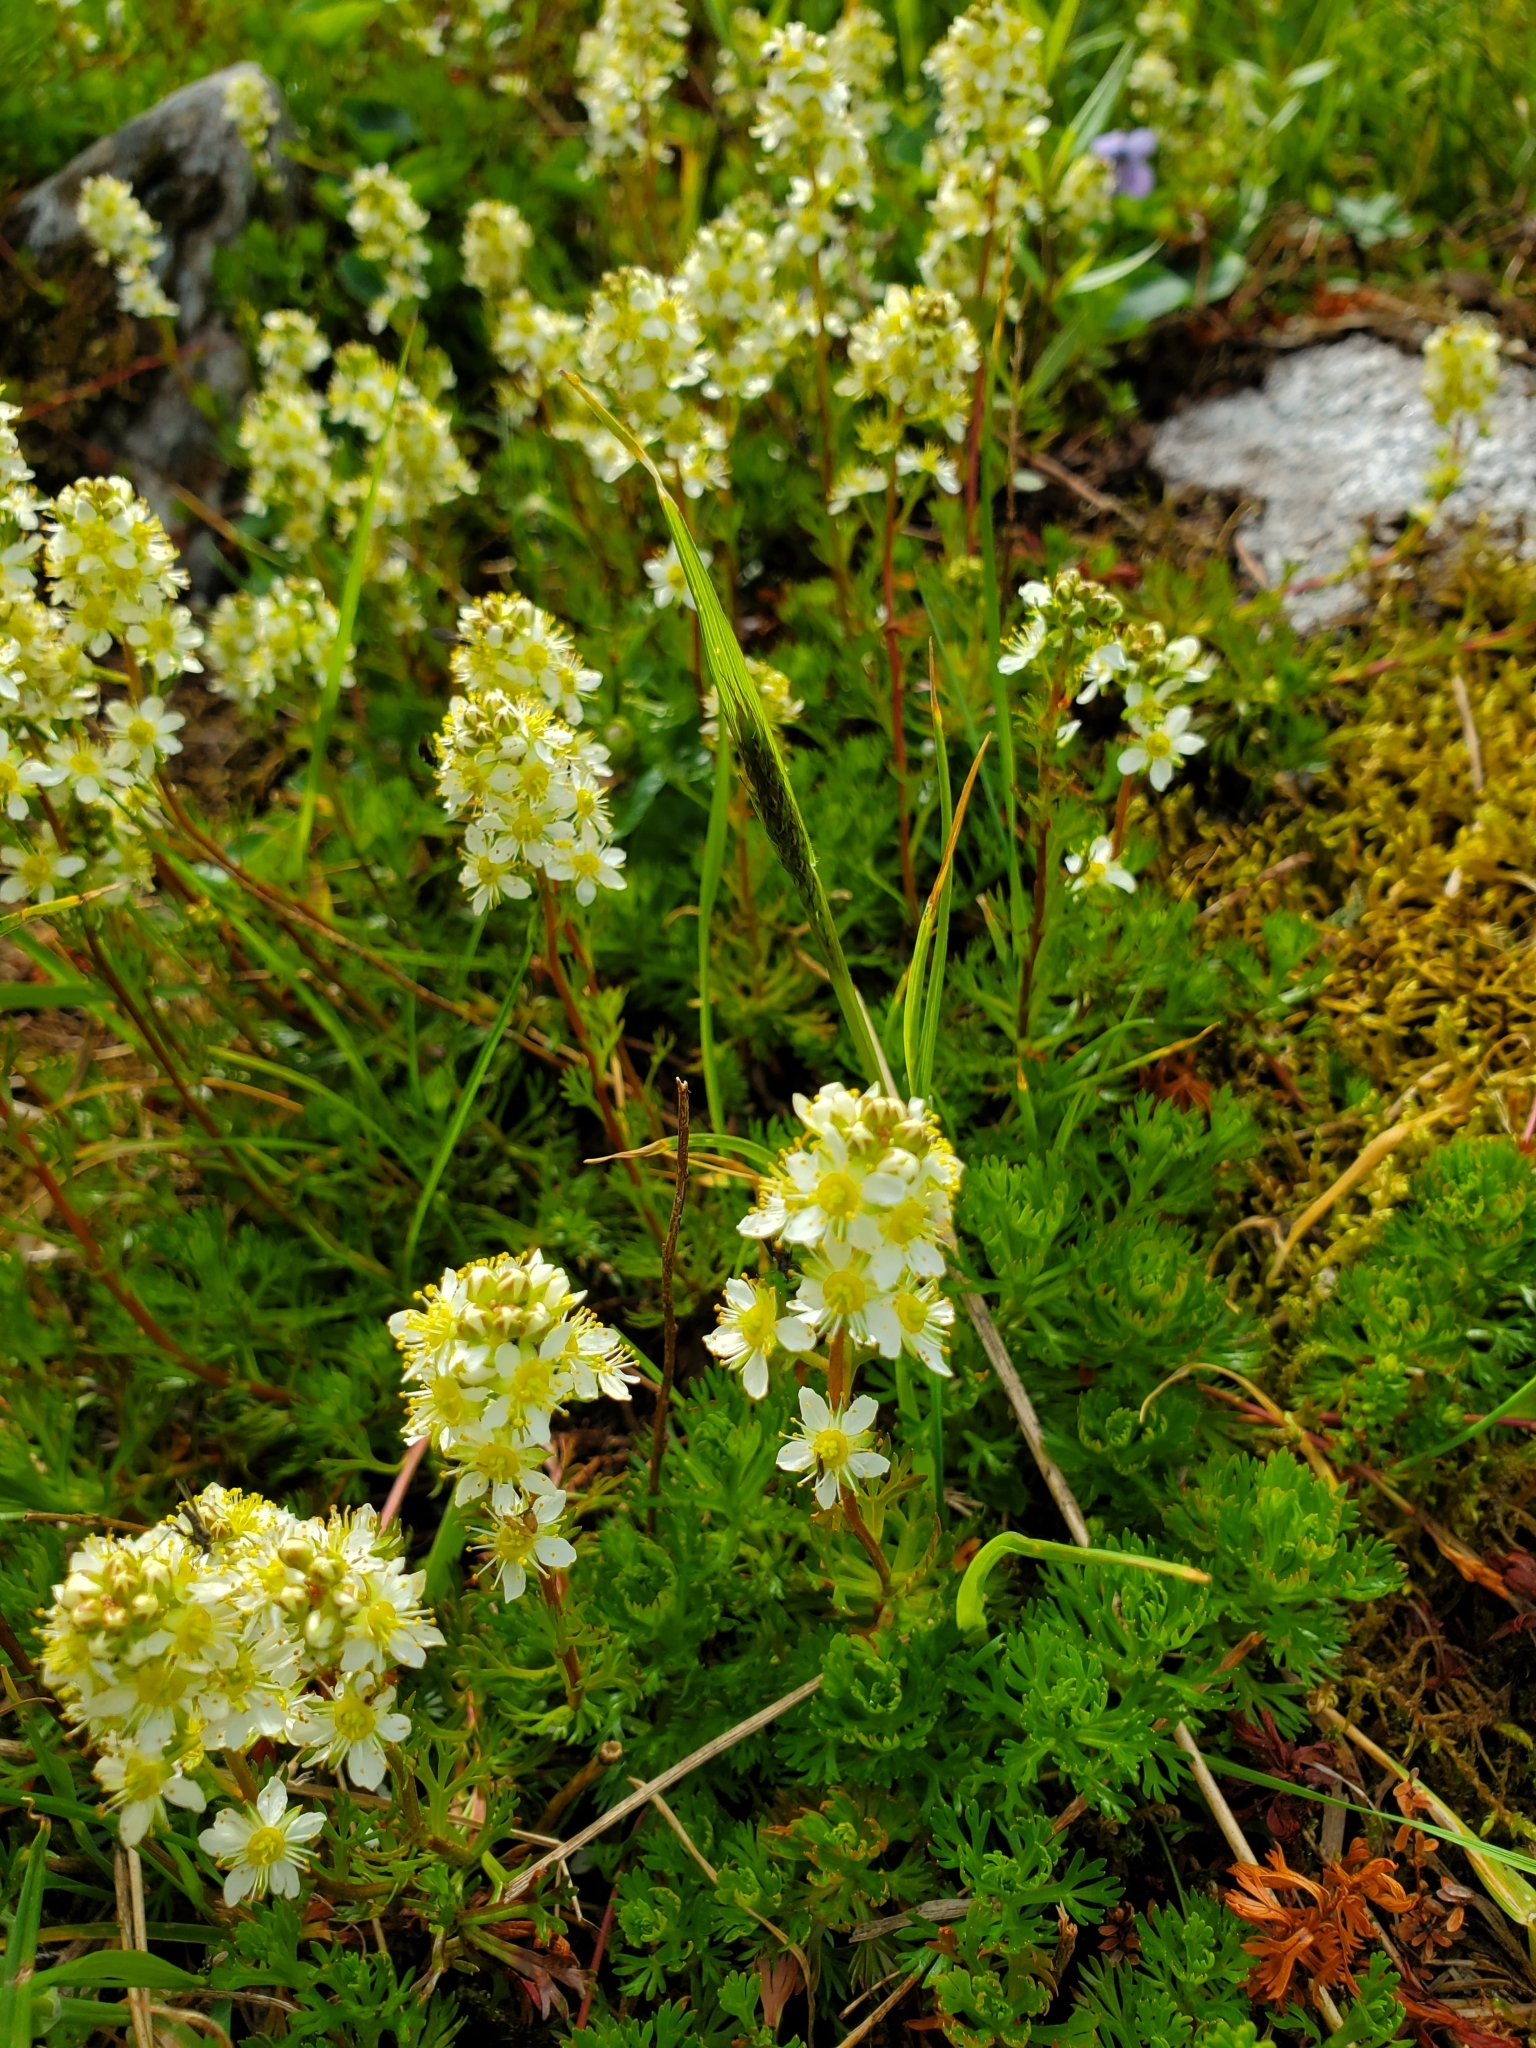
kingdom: Plantae
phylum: Tracheophyta
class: Magnoliopsida
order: Rosales
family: Rosaceae
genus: Luetkea
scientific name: Luetkea pectinata
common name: Partridgefoot
